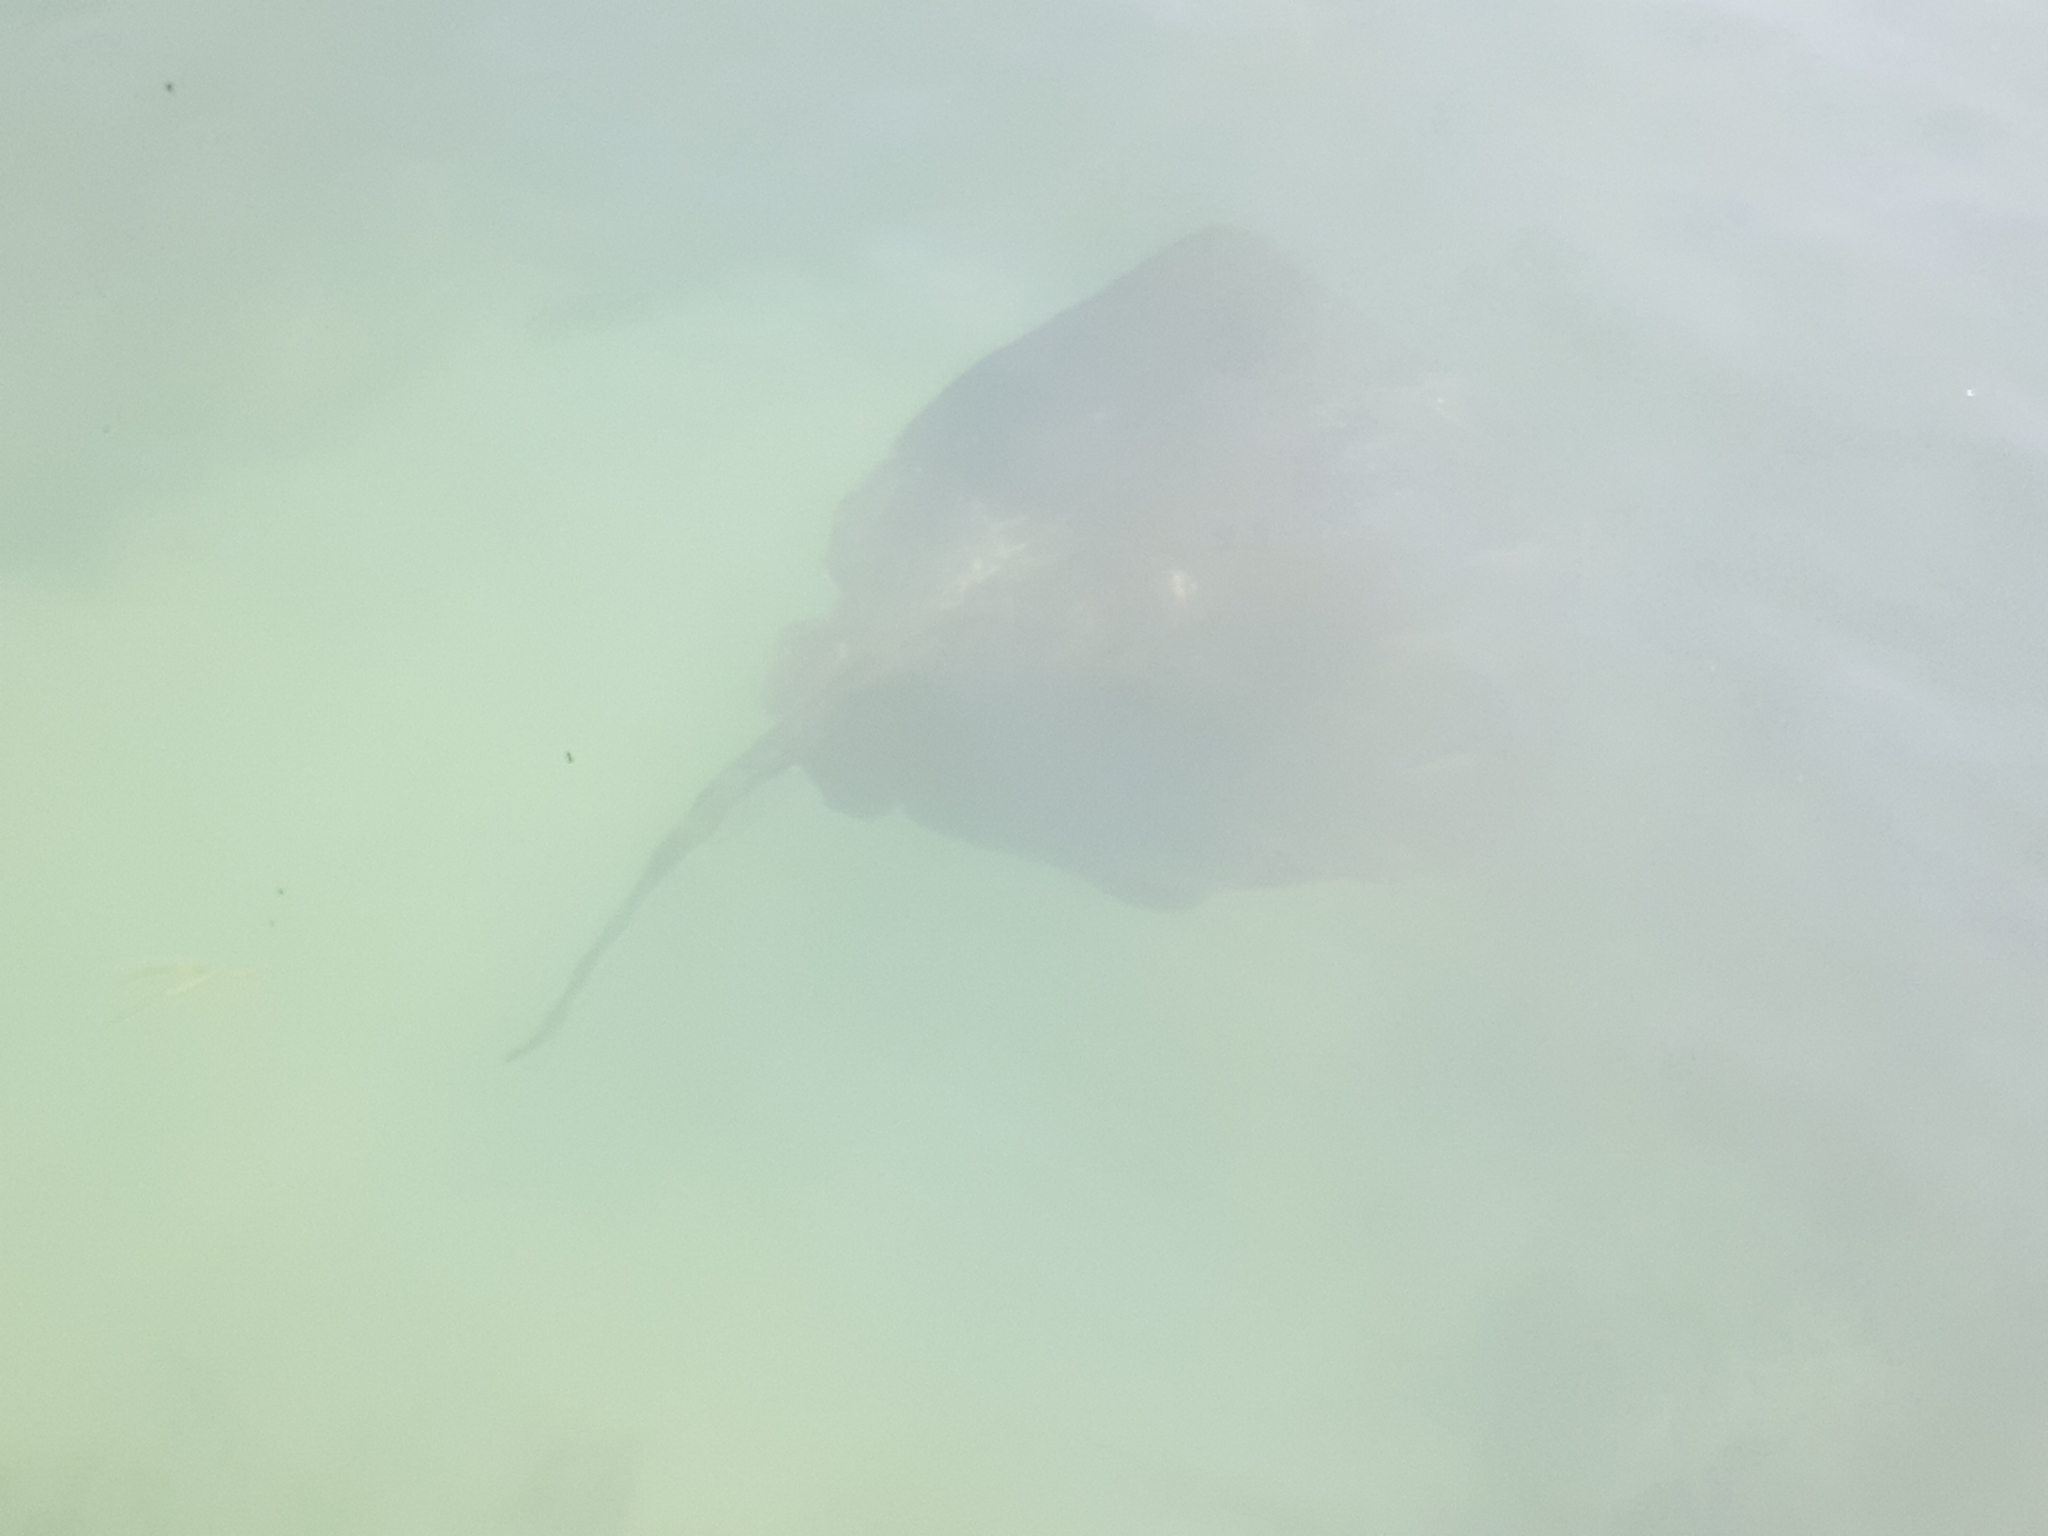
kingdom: Animalia
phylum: Chordata
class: Elasmobranchii
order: Myliobatiformes
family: Dasyatidae
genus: Bathytoshia
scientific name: Bathytoshia brevicaudata
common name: Short-tail stingray
